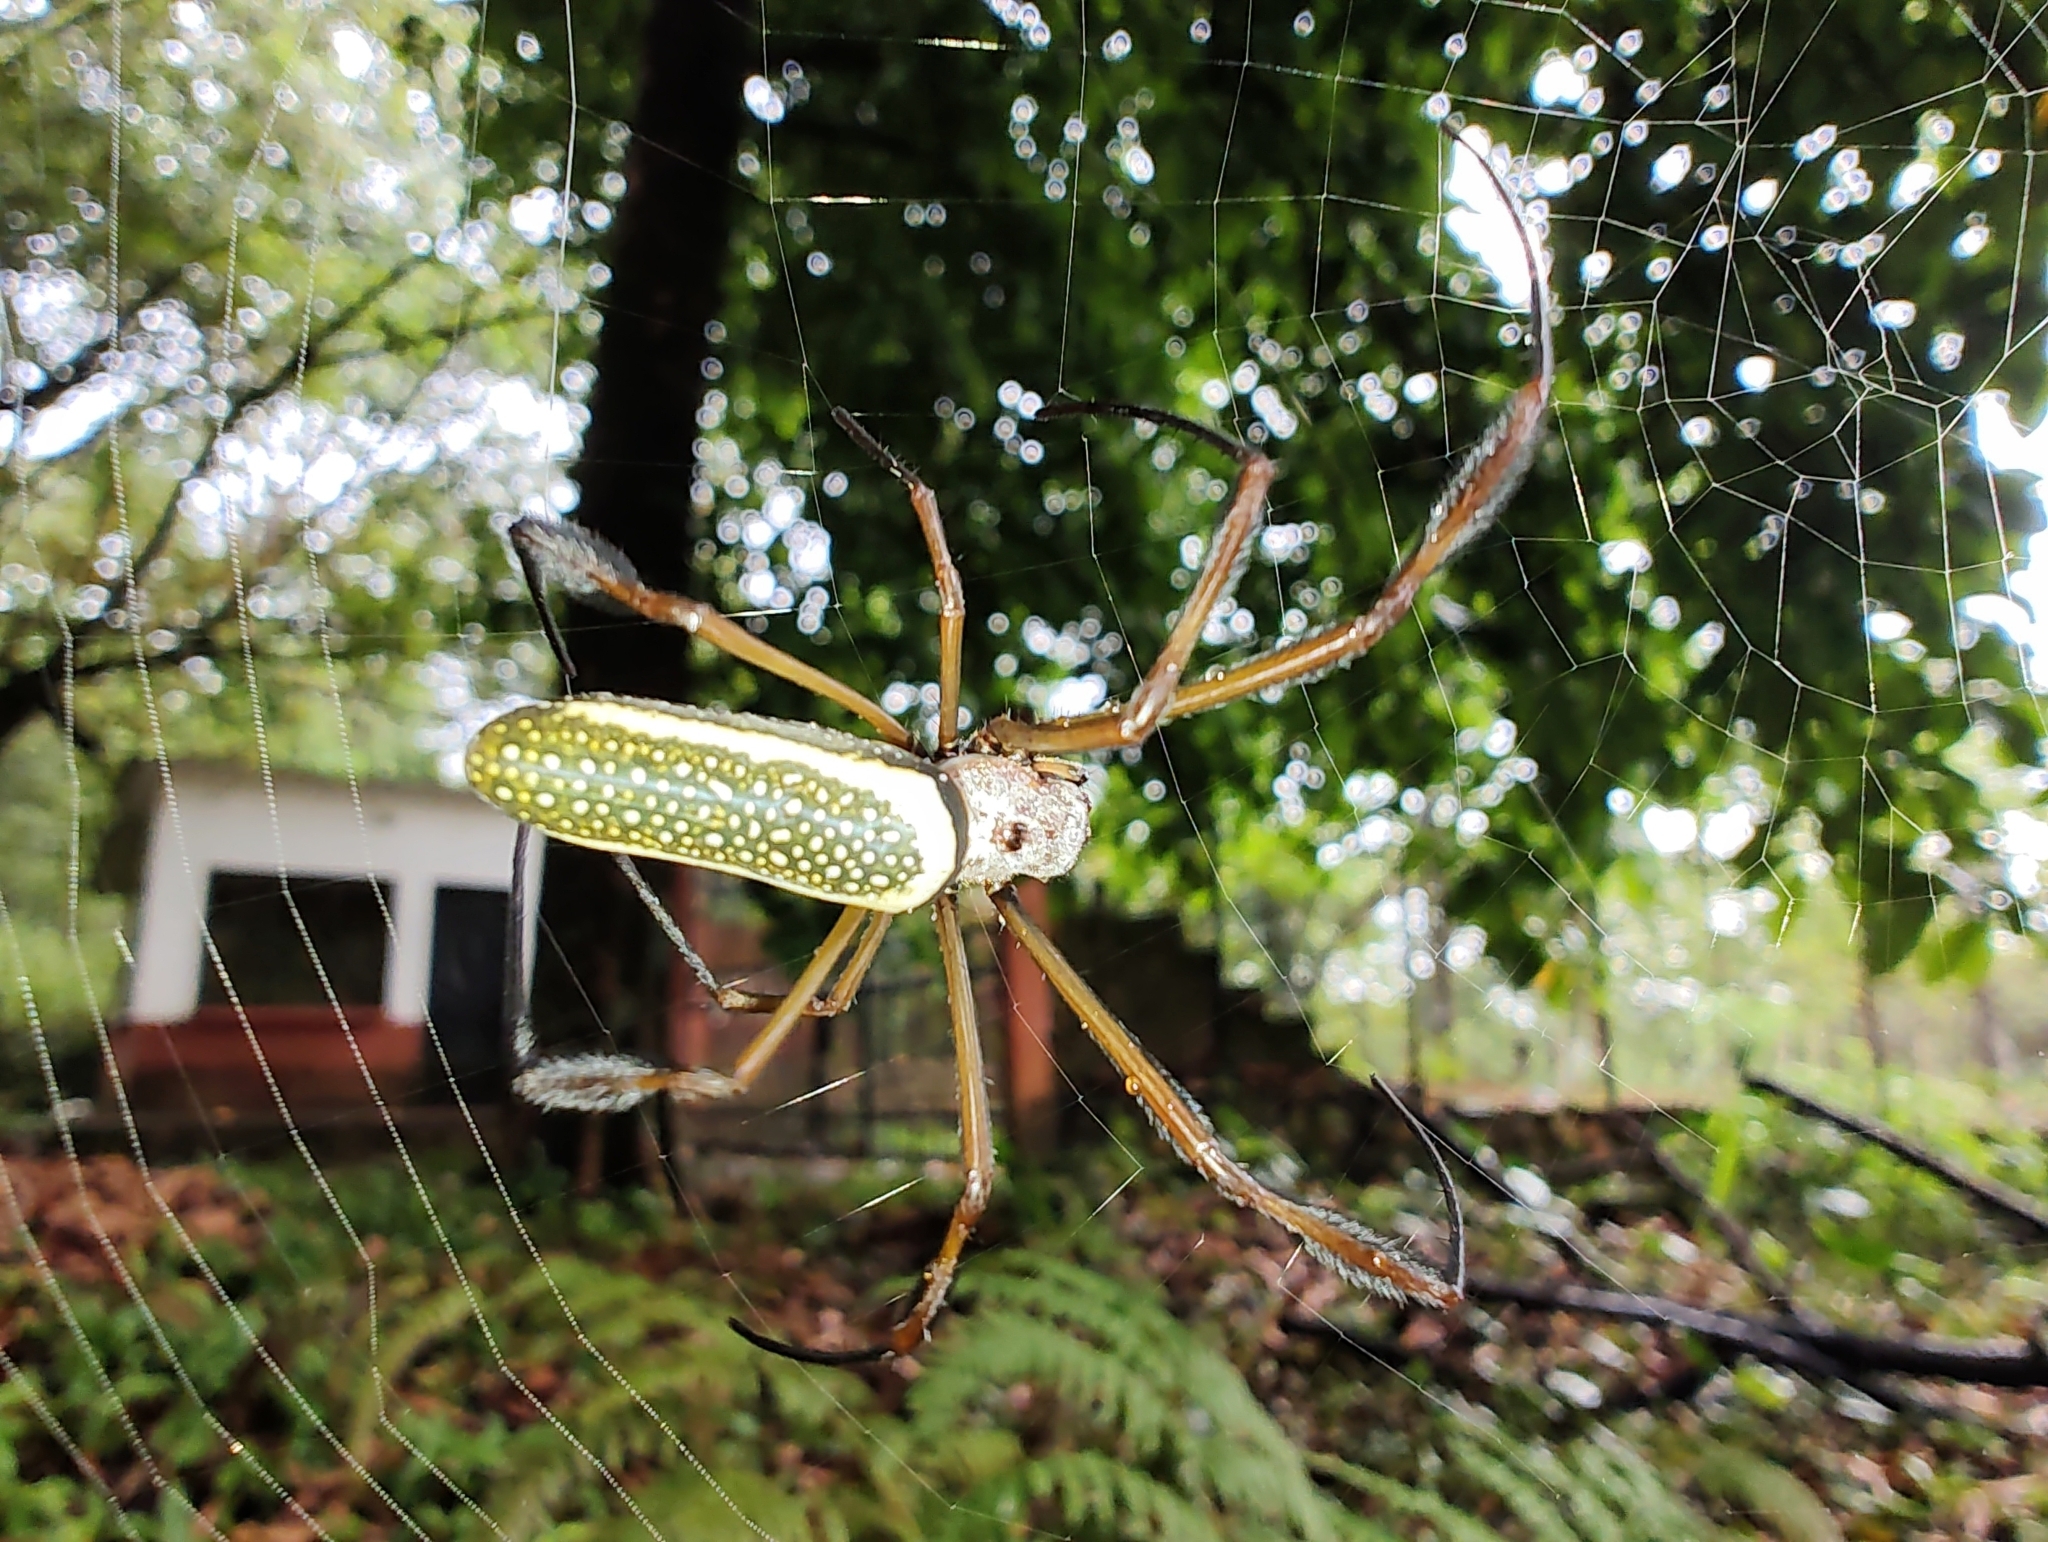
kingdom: Animalia
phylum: Arthropoda
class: Arachnida
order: Araneae
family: Araneidae
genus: Trichonephila
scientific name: Trichonephila clavipes
